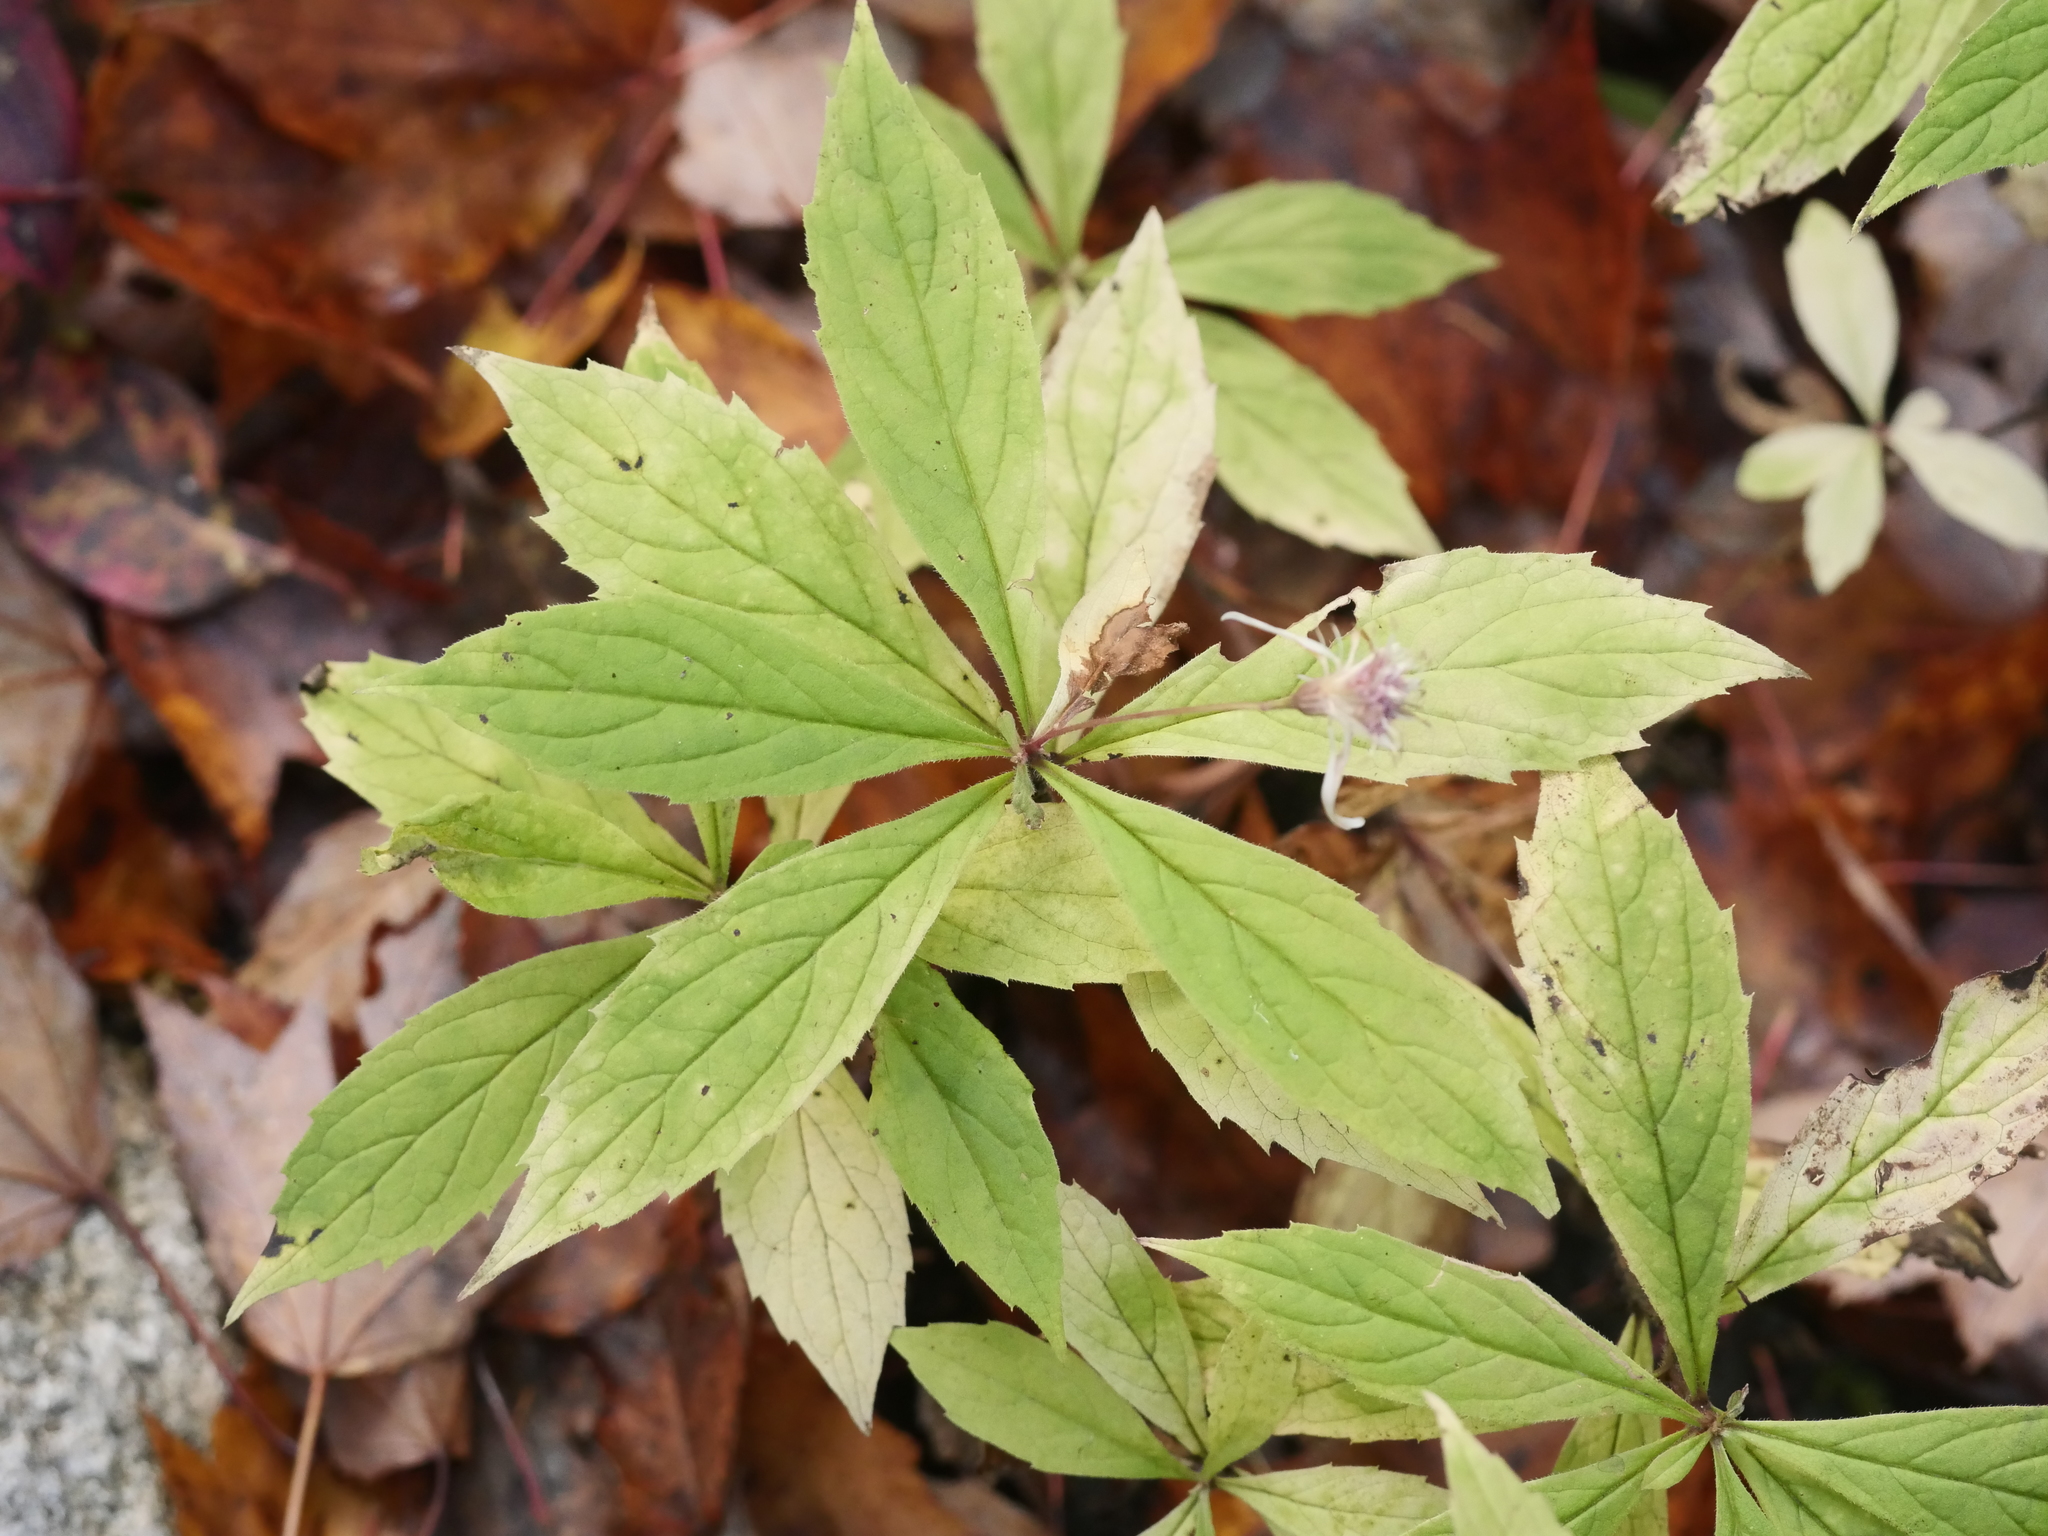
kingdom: Plantae
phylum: Tracheophyta
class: Magnoliopsida
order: Asterales
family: Asteraceae
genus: Oclemena
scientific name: Oclemena acuminata
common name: Mountain aster
